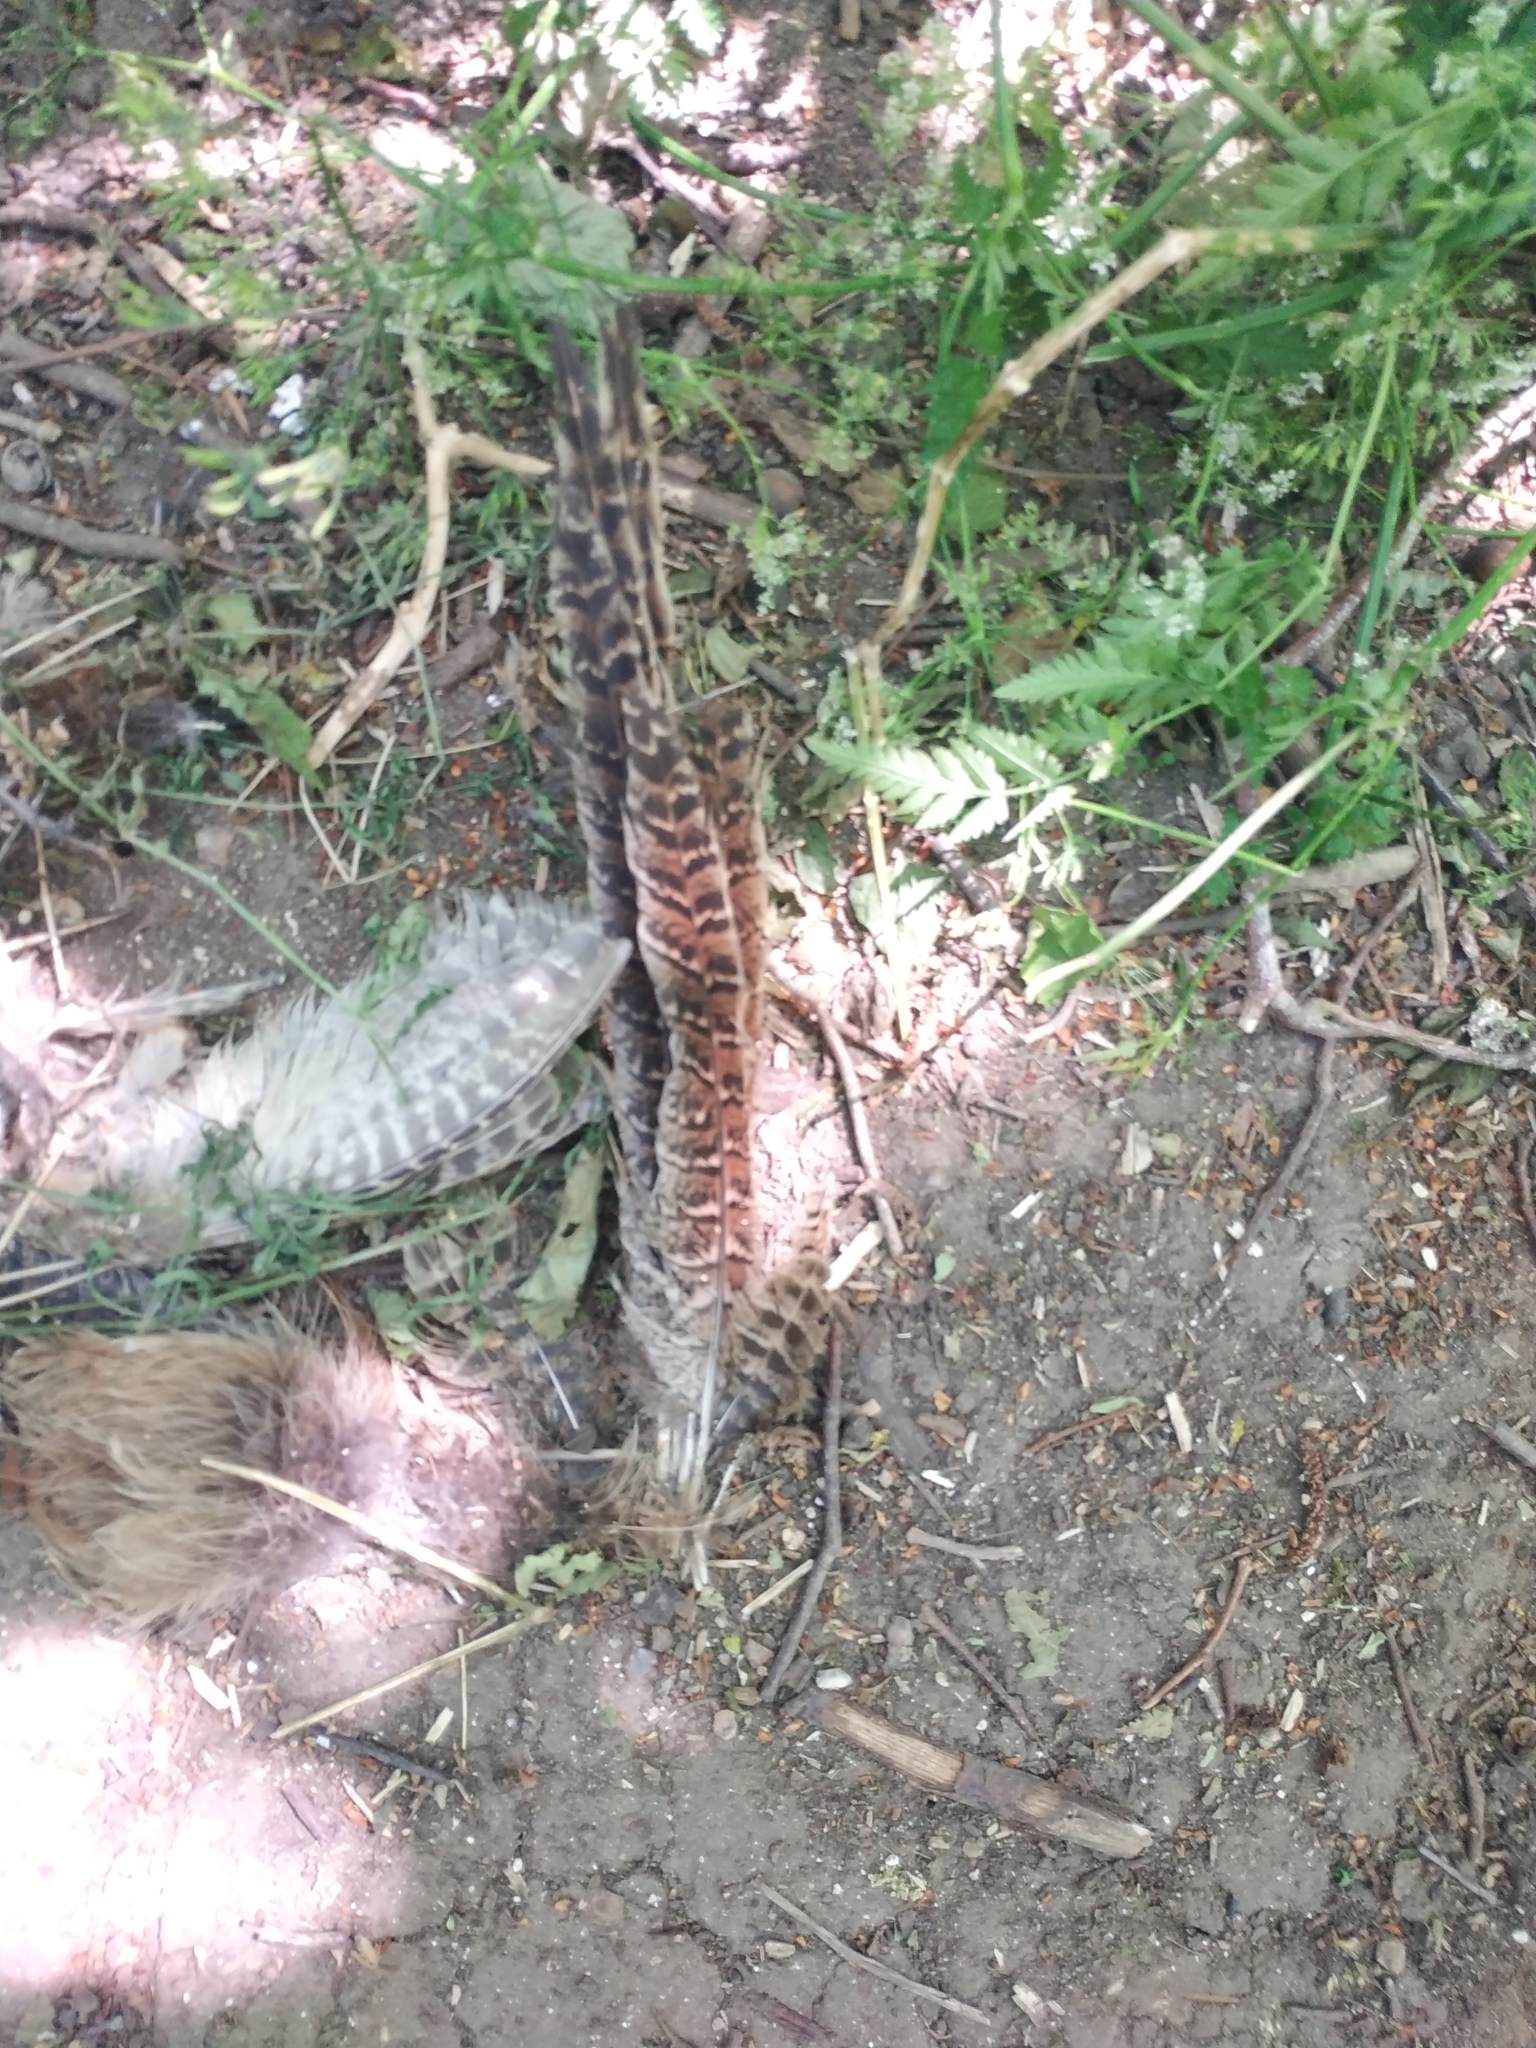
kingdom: Animalia
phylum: Chordata
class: Aves
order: Galliformes
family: Phasianidae
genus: Phasianus
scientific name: Phasianus colchicus
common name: Common pheasant
